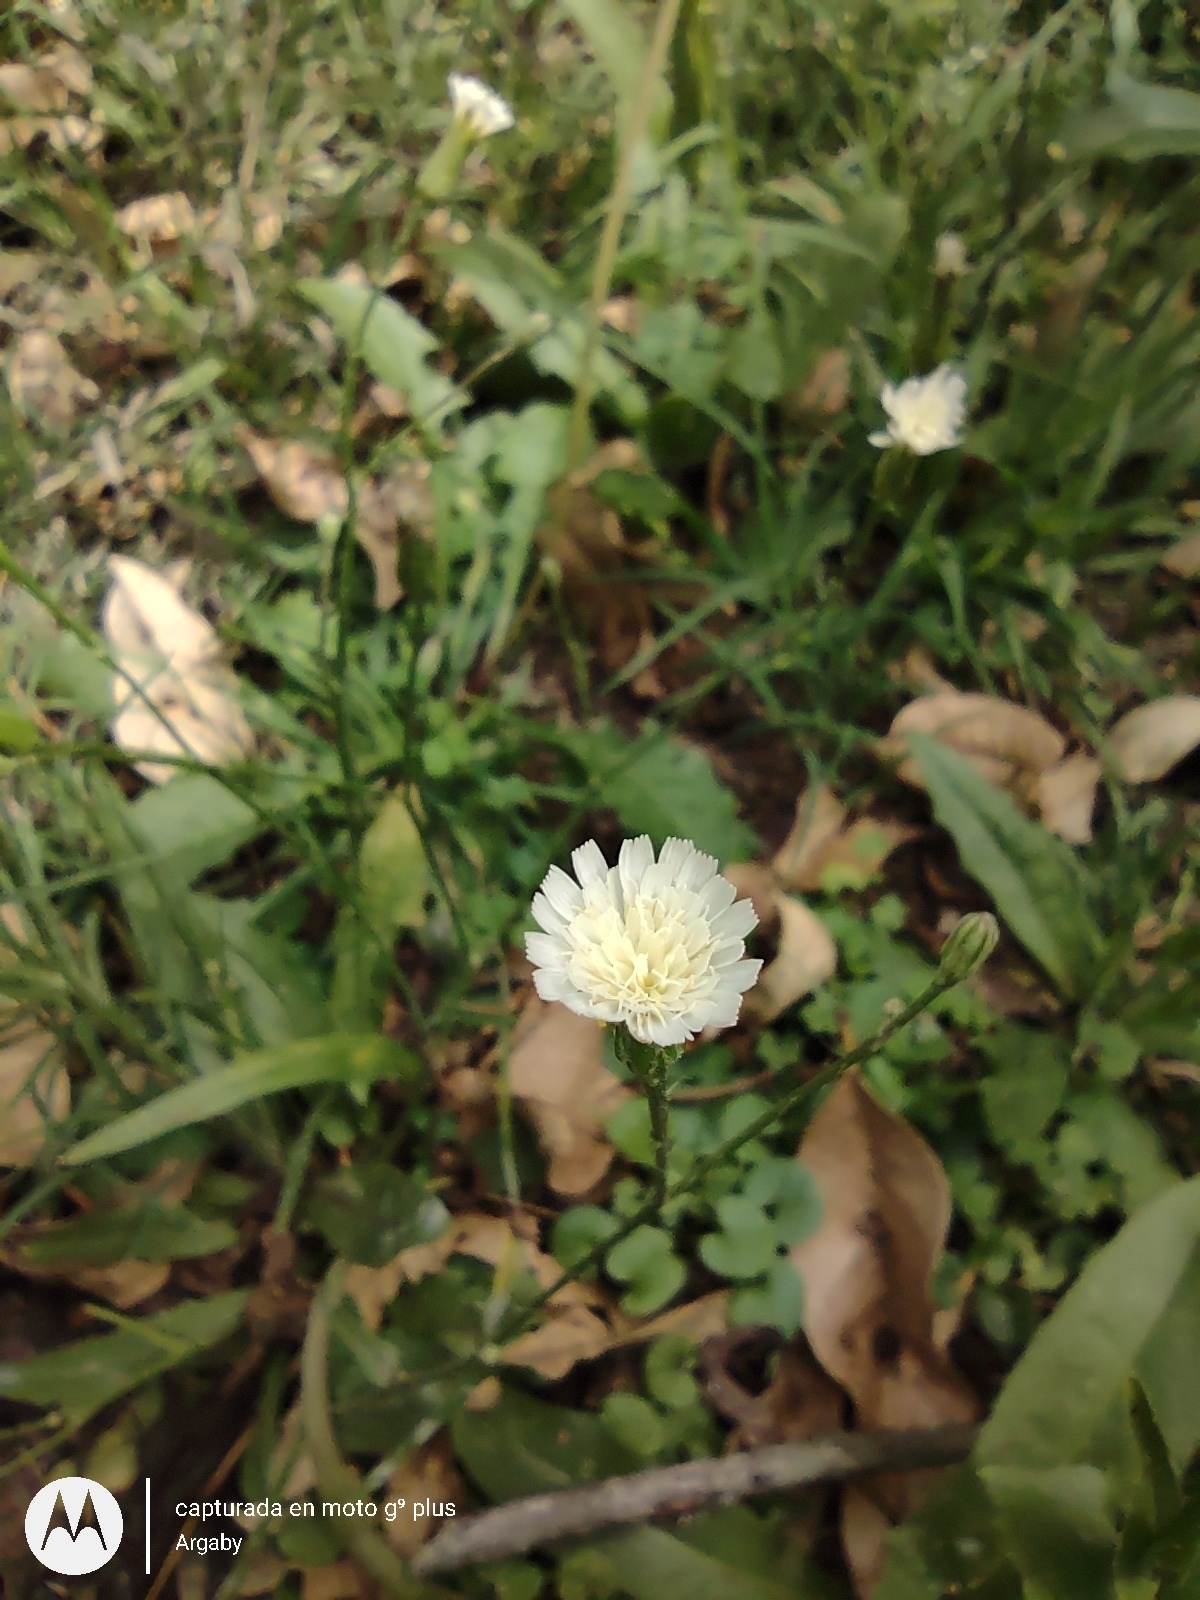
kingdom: Plantae
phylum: Tracheophyta
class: Magnoliopsida
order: Asterales
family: Asteraceae
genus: Hypochaeris
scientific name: Hypochaeris albiflora
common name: White flatweed
